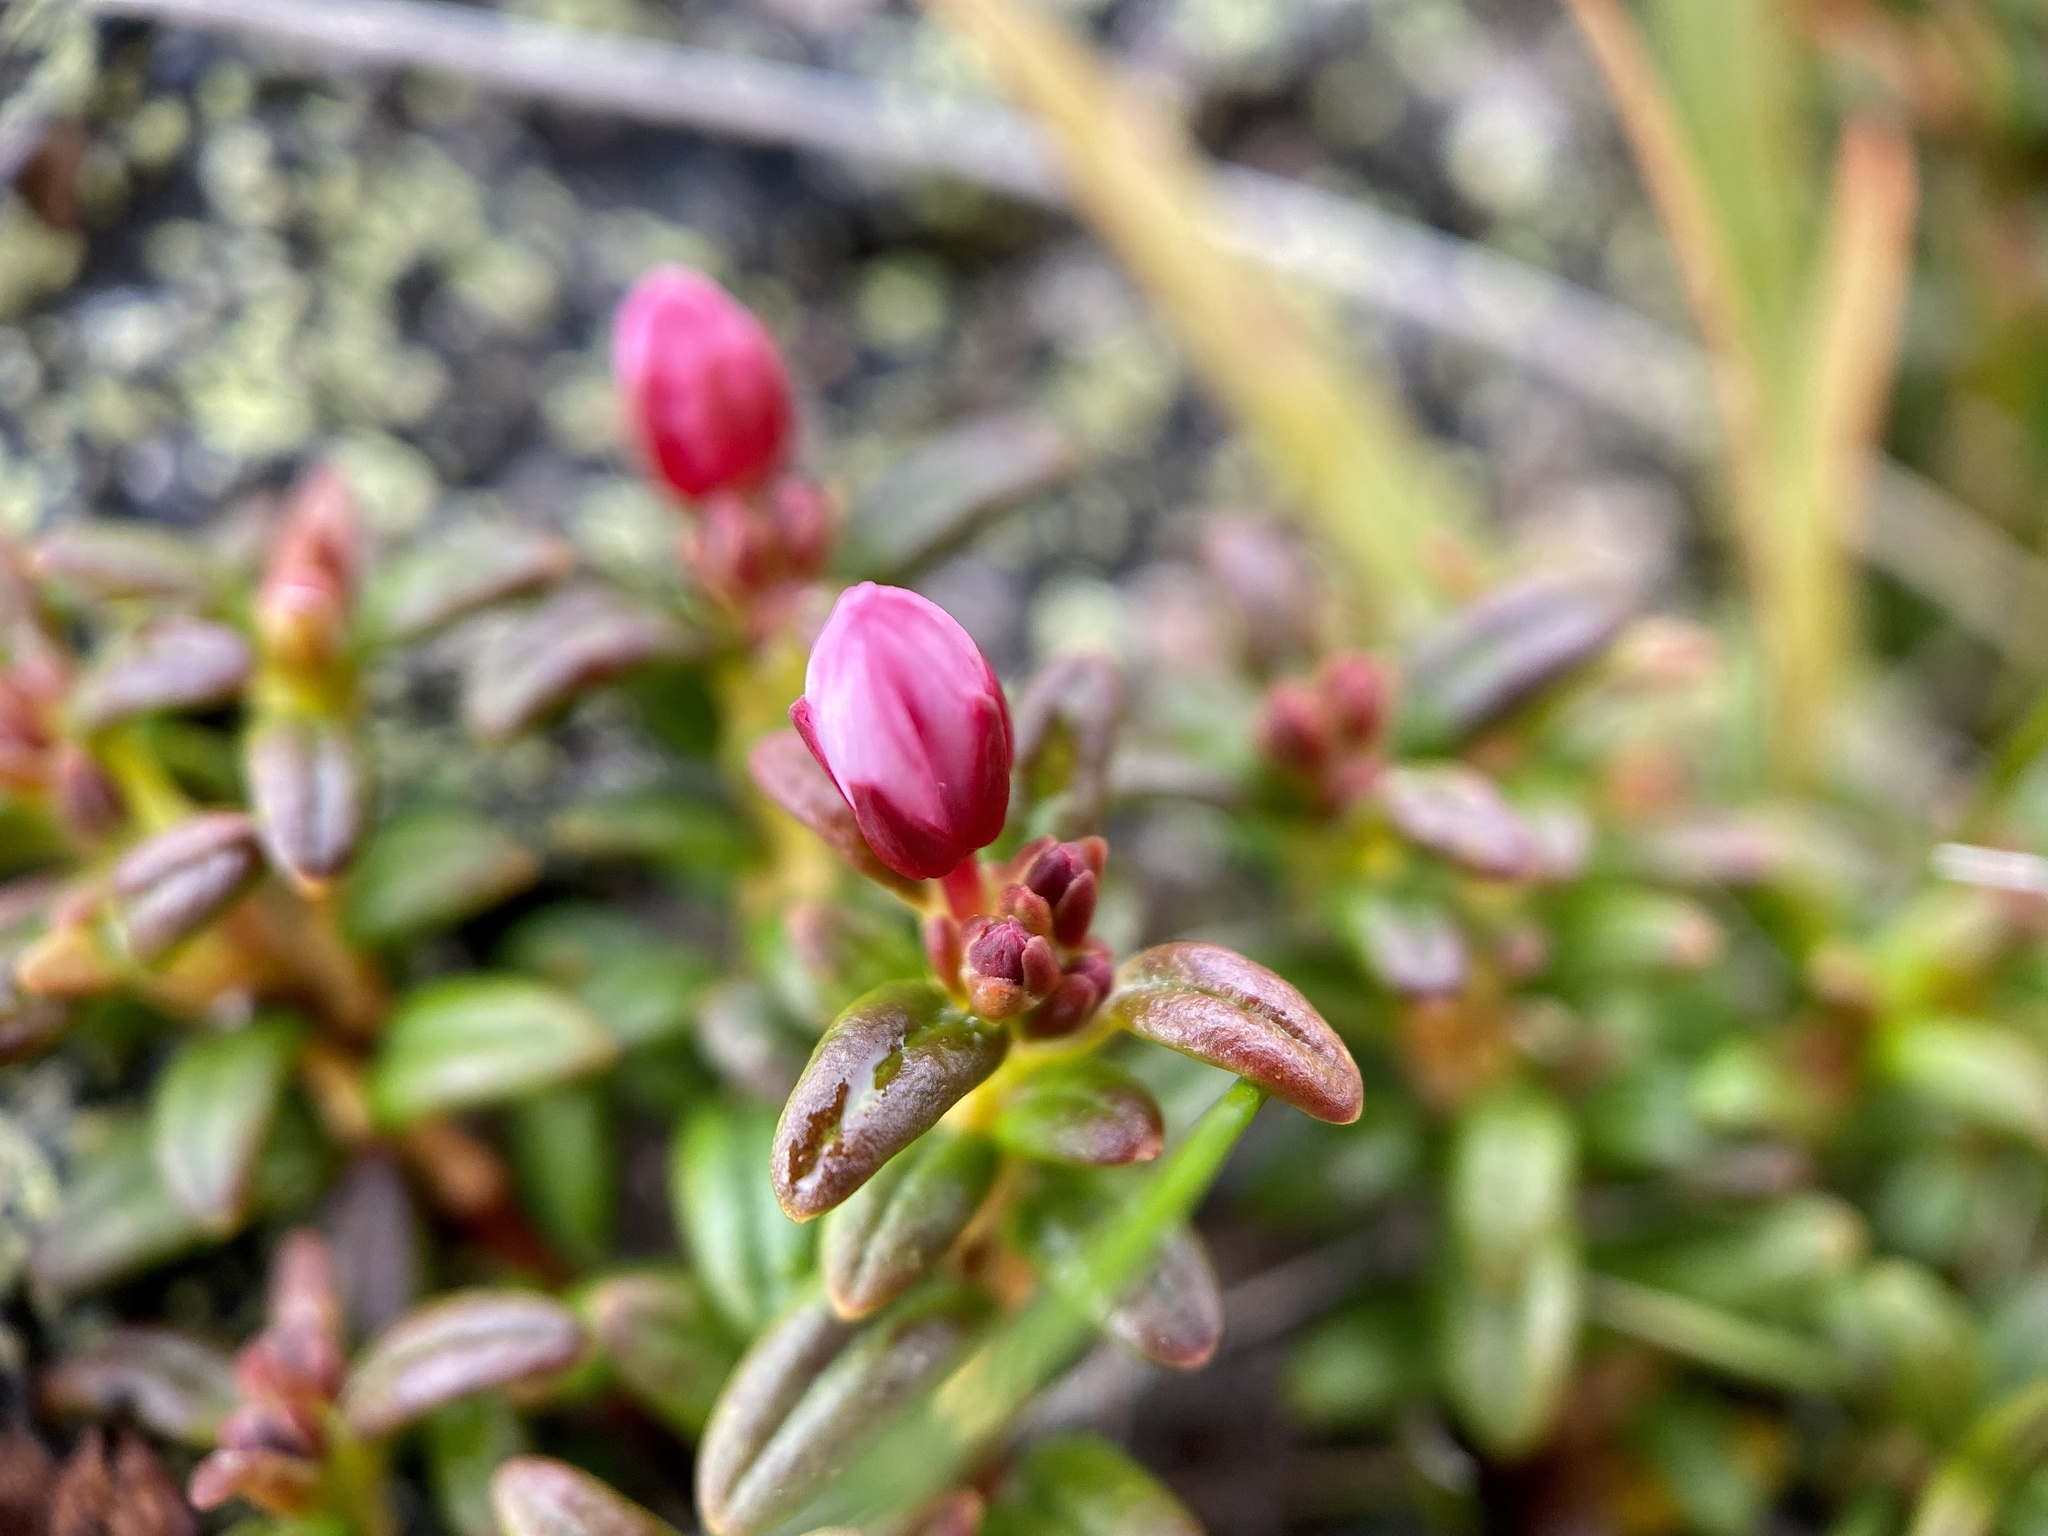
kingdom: Plantae
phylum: Tracheophyta
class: Magnoliopsida
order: Ericales
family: Ericaceae
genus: Kalmia
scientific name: Kalmia procumbens
